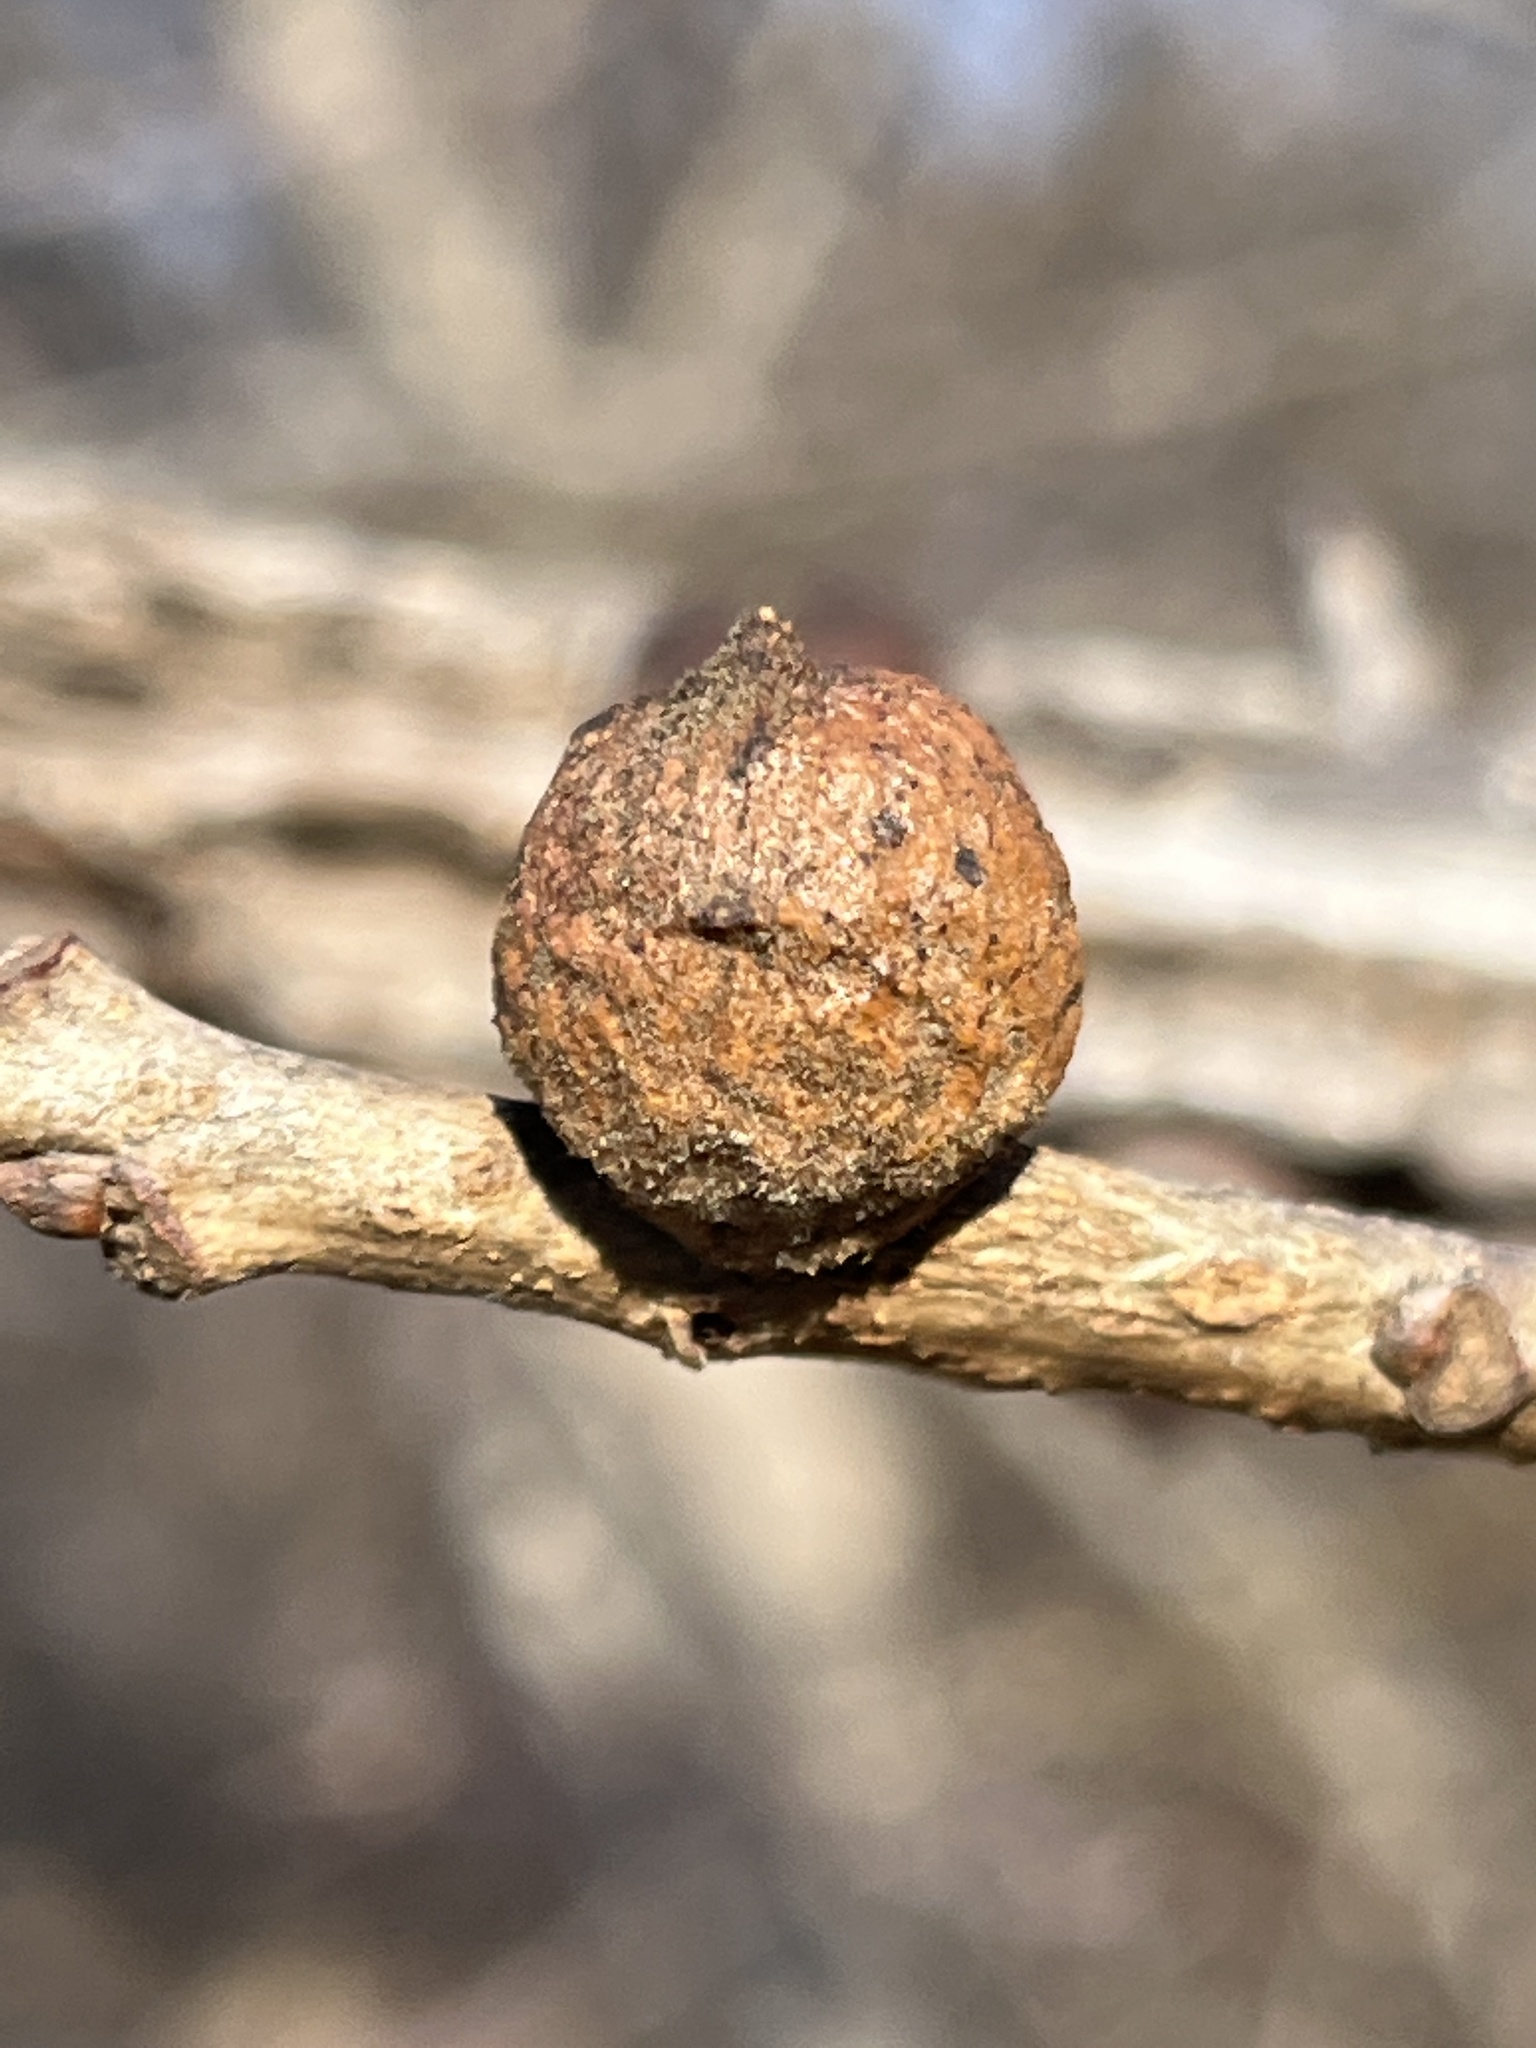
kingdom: Animalia
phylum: Arthropoda
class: Insecta
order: Hymenoptera
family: Cynipidae
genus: Disholcaspis
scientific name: Disholcaspis
